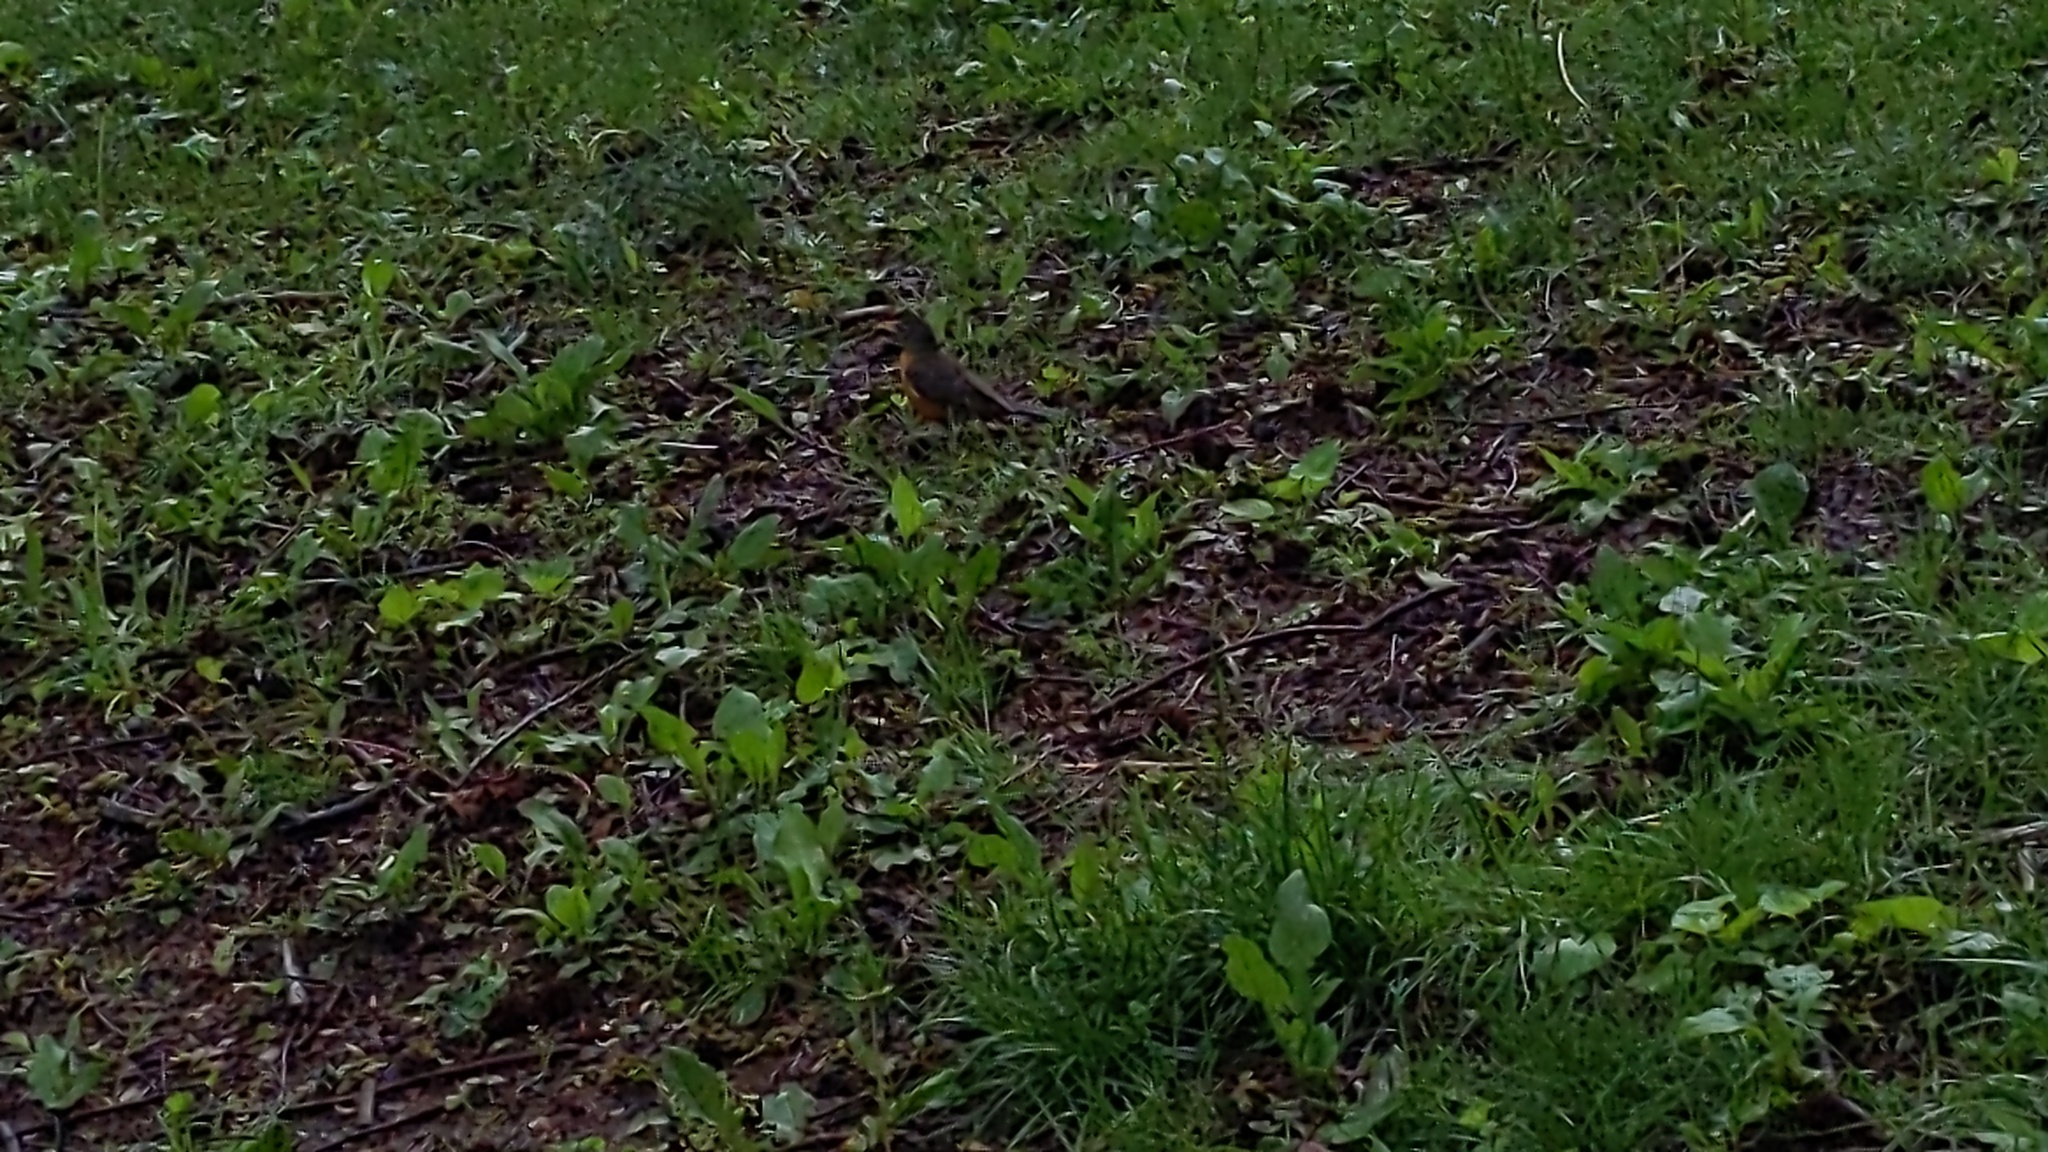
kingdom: Animalia
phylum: Chordata
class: Aves
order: Passeriformes
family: Turdidae
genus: Turdus
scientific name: Turdus migratorius
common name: American robin
